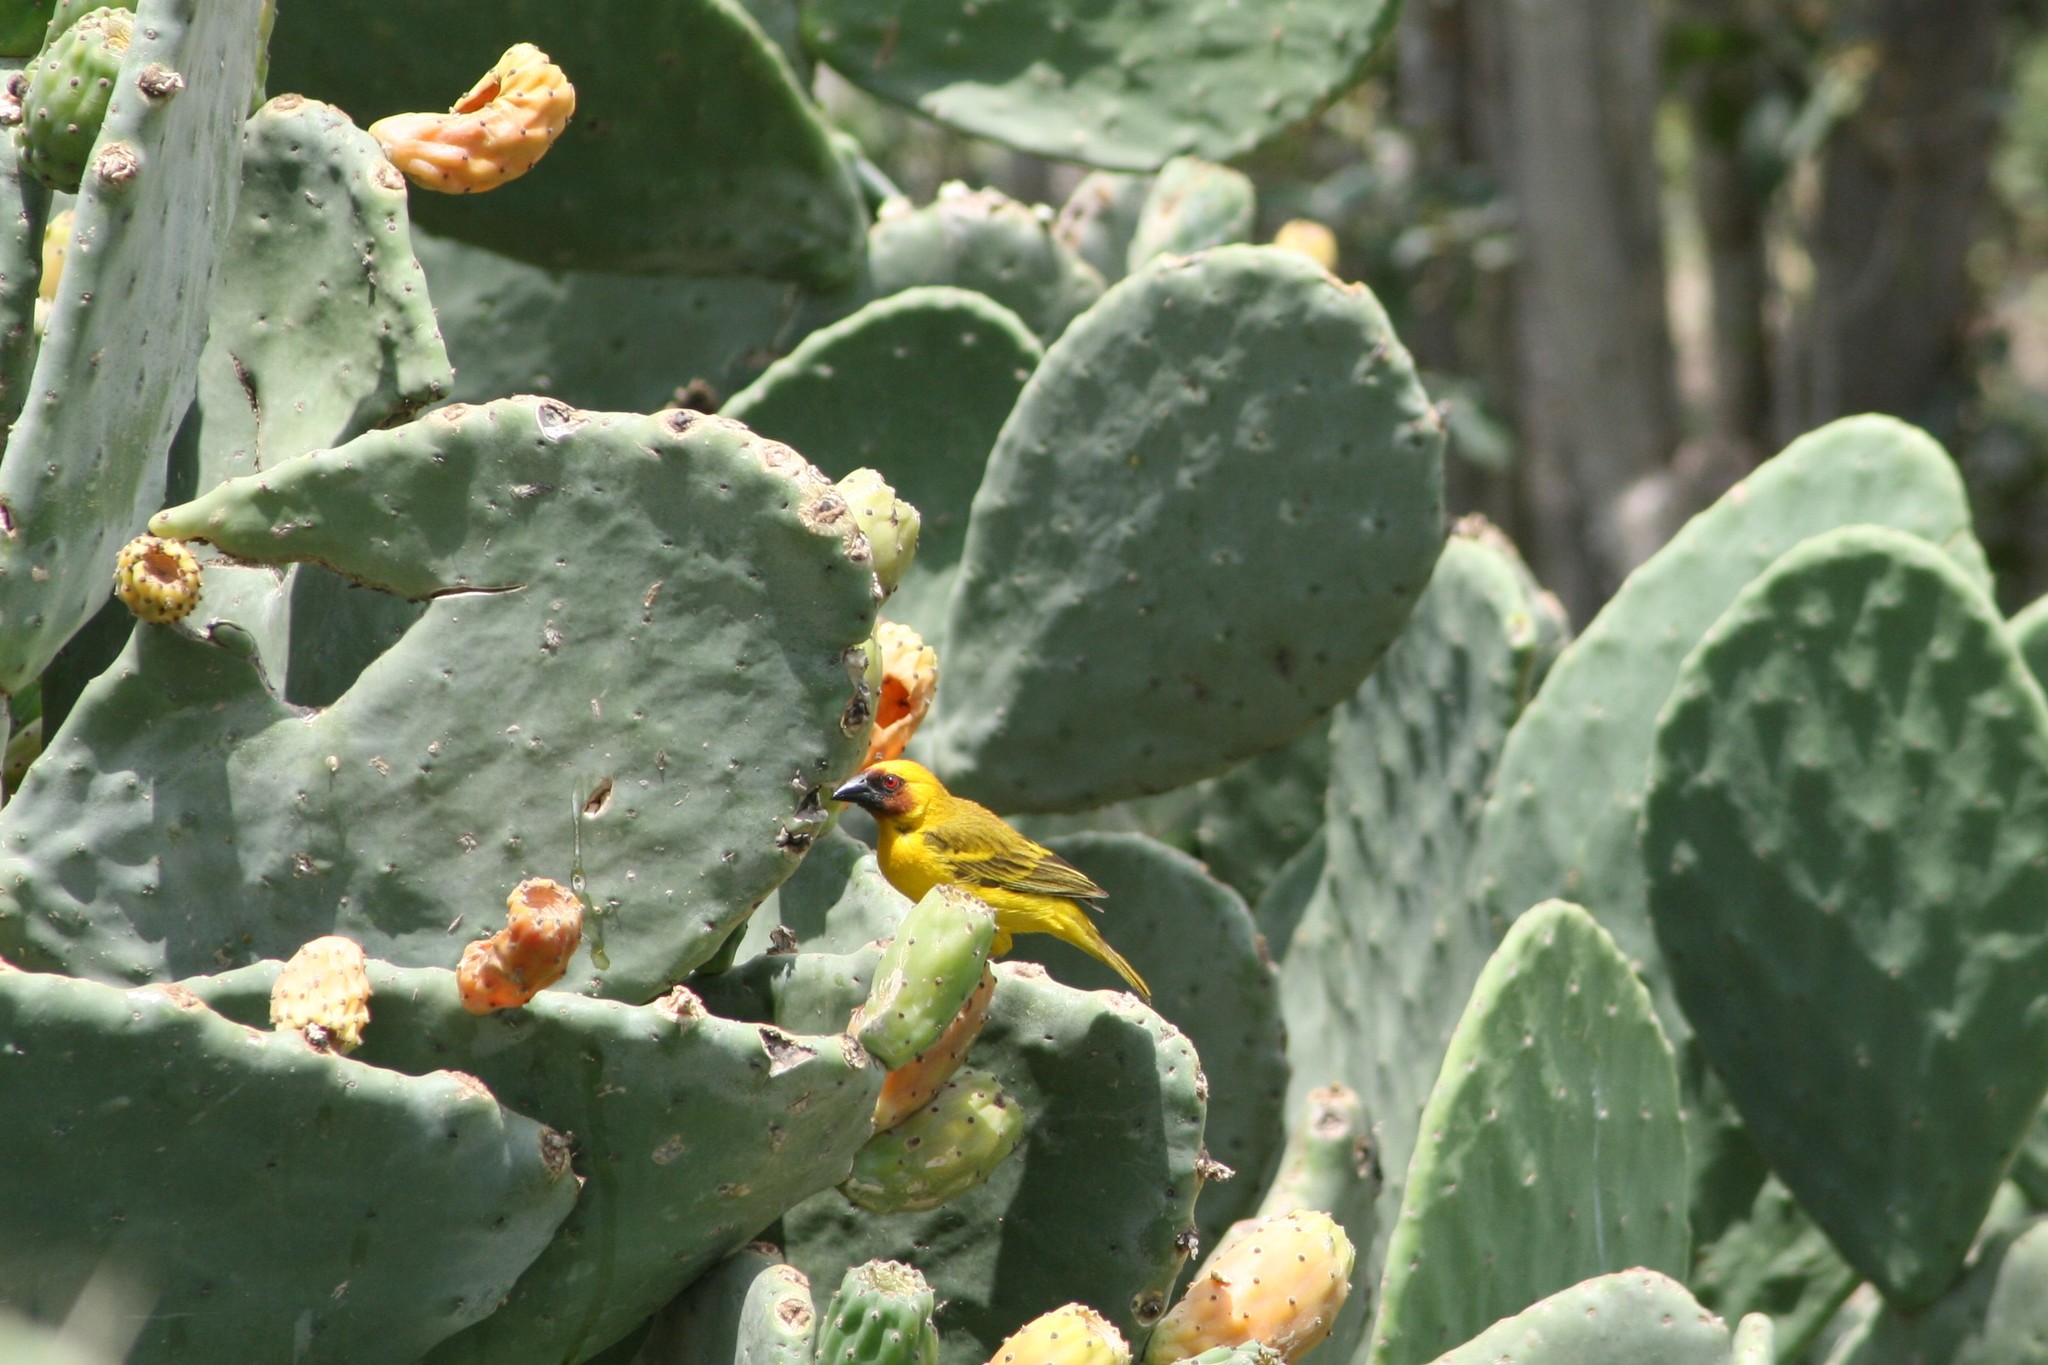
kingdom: Animalia
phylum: Chordata
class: Aves
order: Passeriformes
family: Ploceidae
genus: Ploceus
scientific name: Ploceus galbula
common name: Rüppell's weaver
